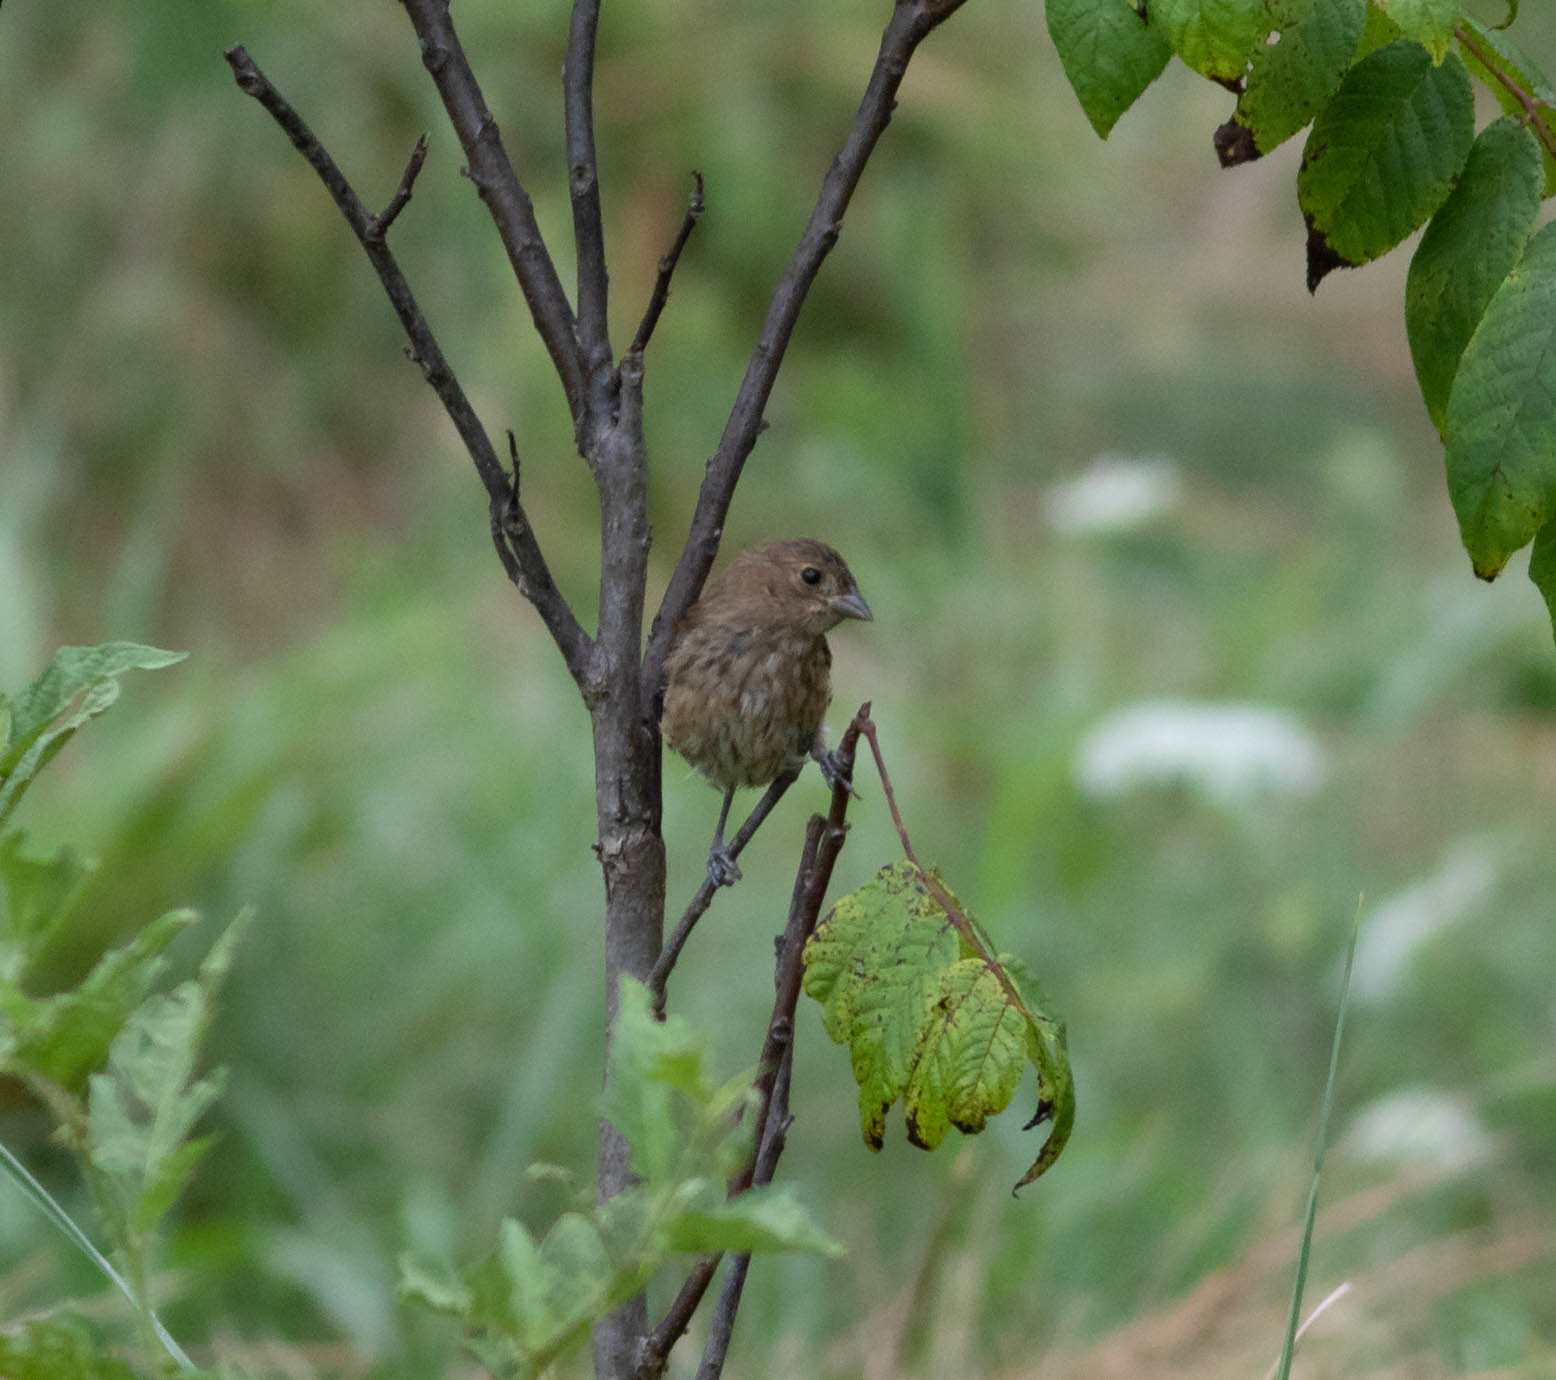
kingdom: Animalia
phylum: Chordata
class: Aves
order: Passeriformes
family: Cardinalidae
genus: Passerina
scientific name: Passerina cyanea
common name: Indigo bunting
